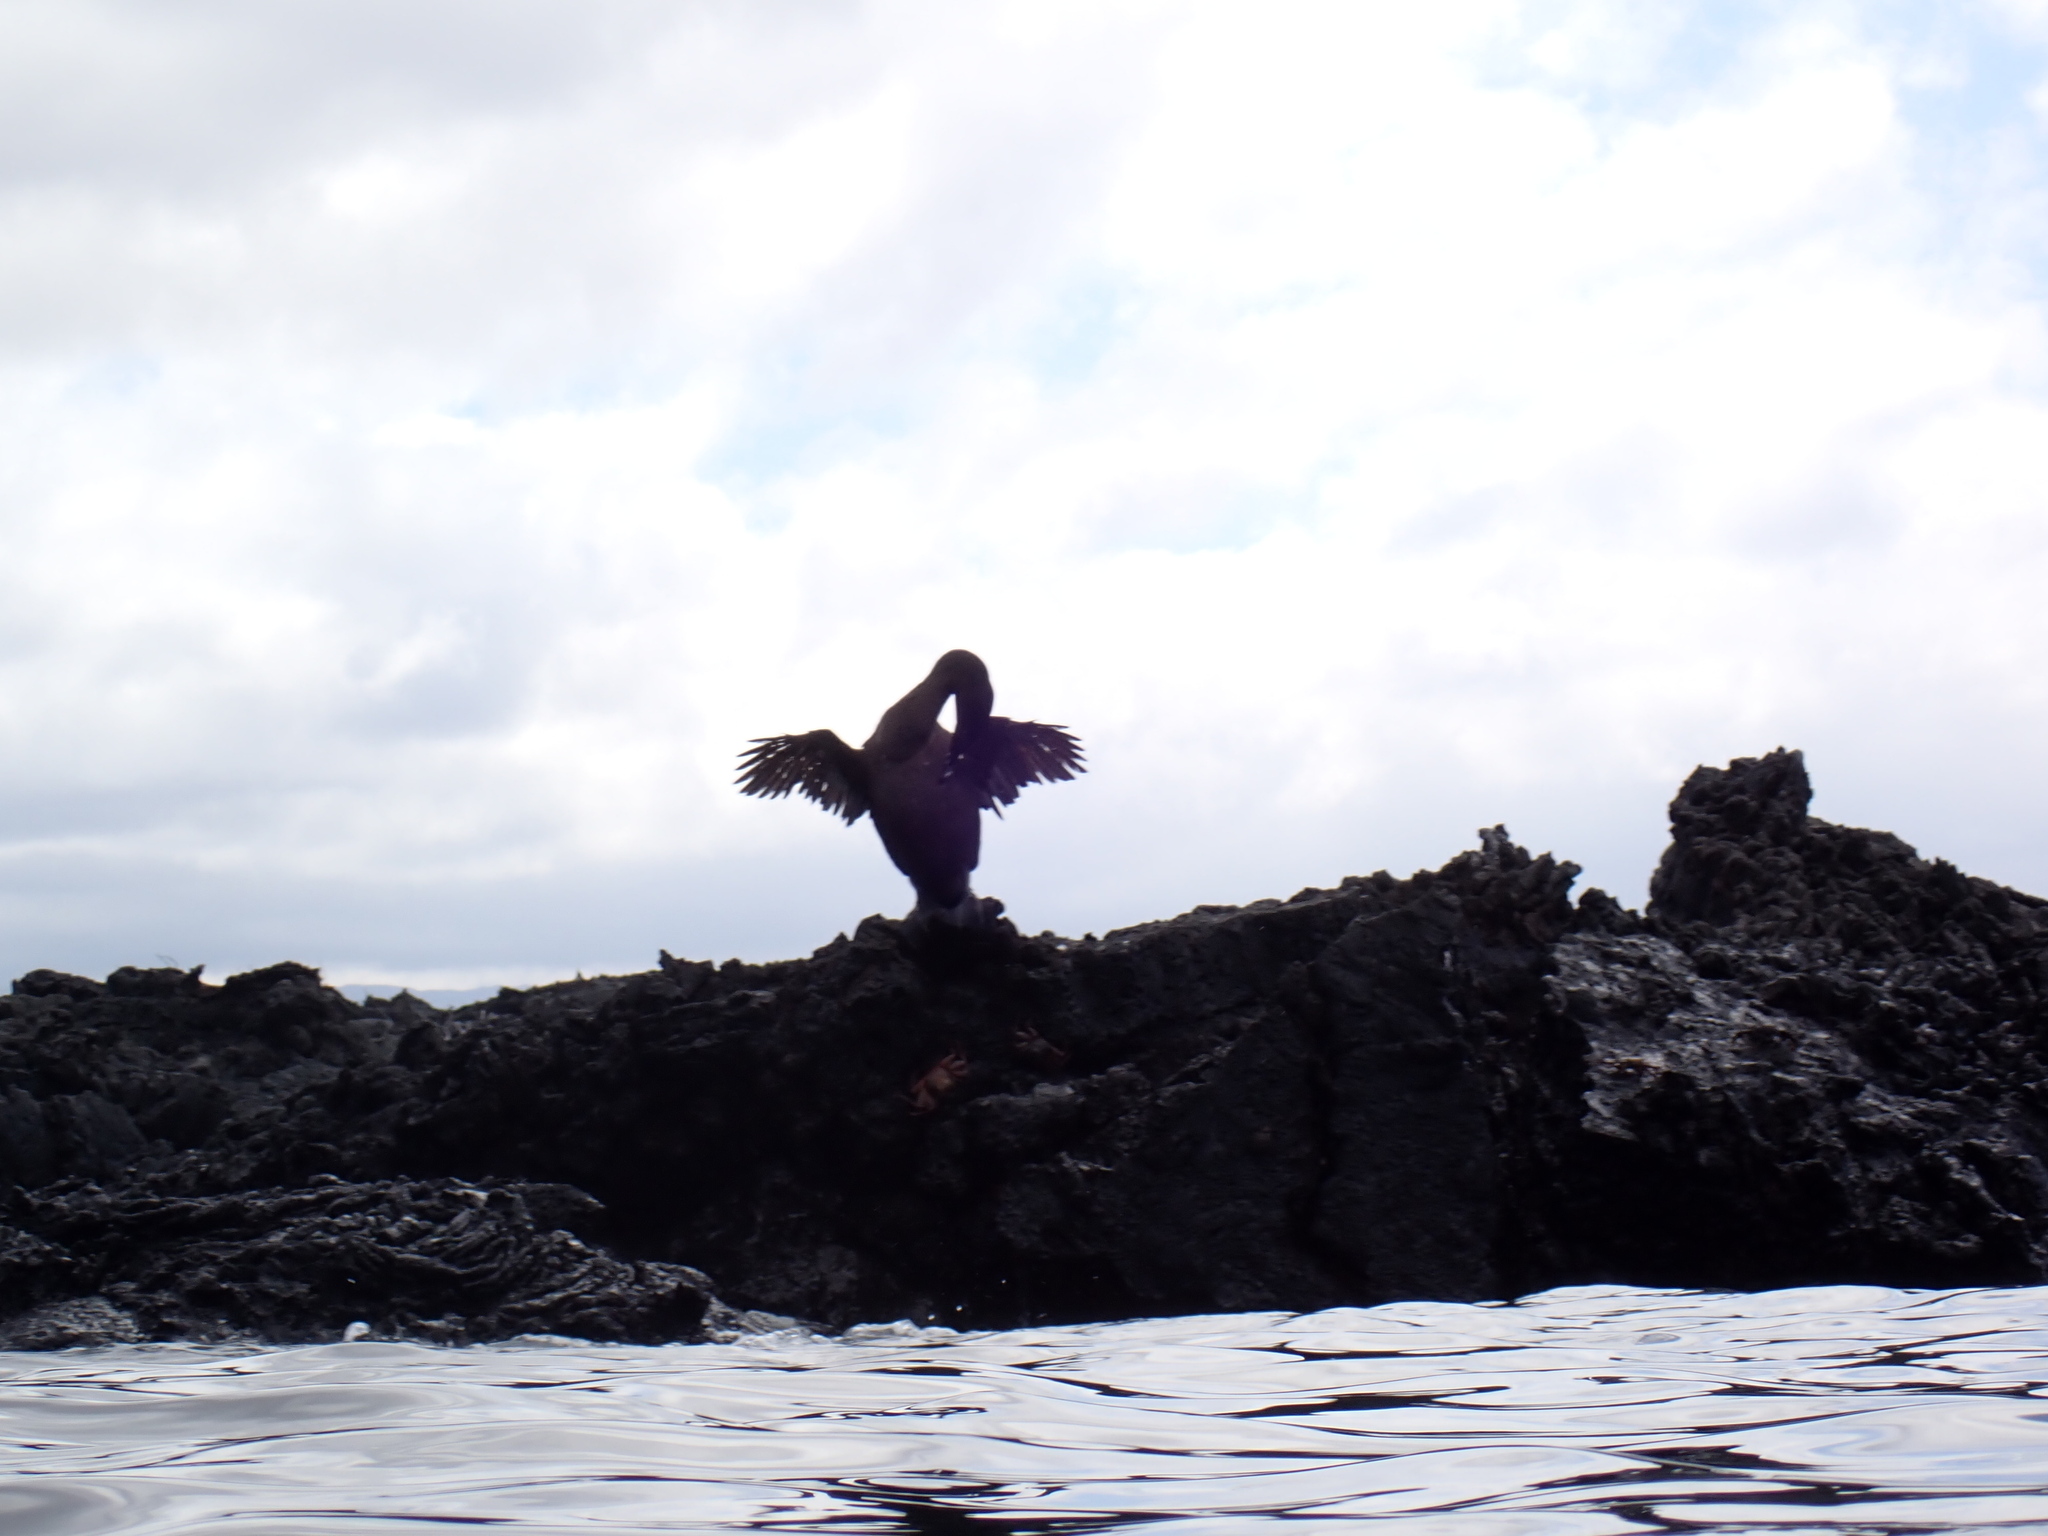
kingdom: Animalia
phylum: Chordata
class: Aves
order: Suliformes
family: Phalacrocoracidae
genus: Phalacrocorax
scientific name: Phalacrocorax harrisi
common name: Flightless cormorant
